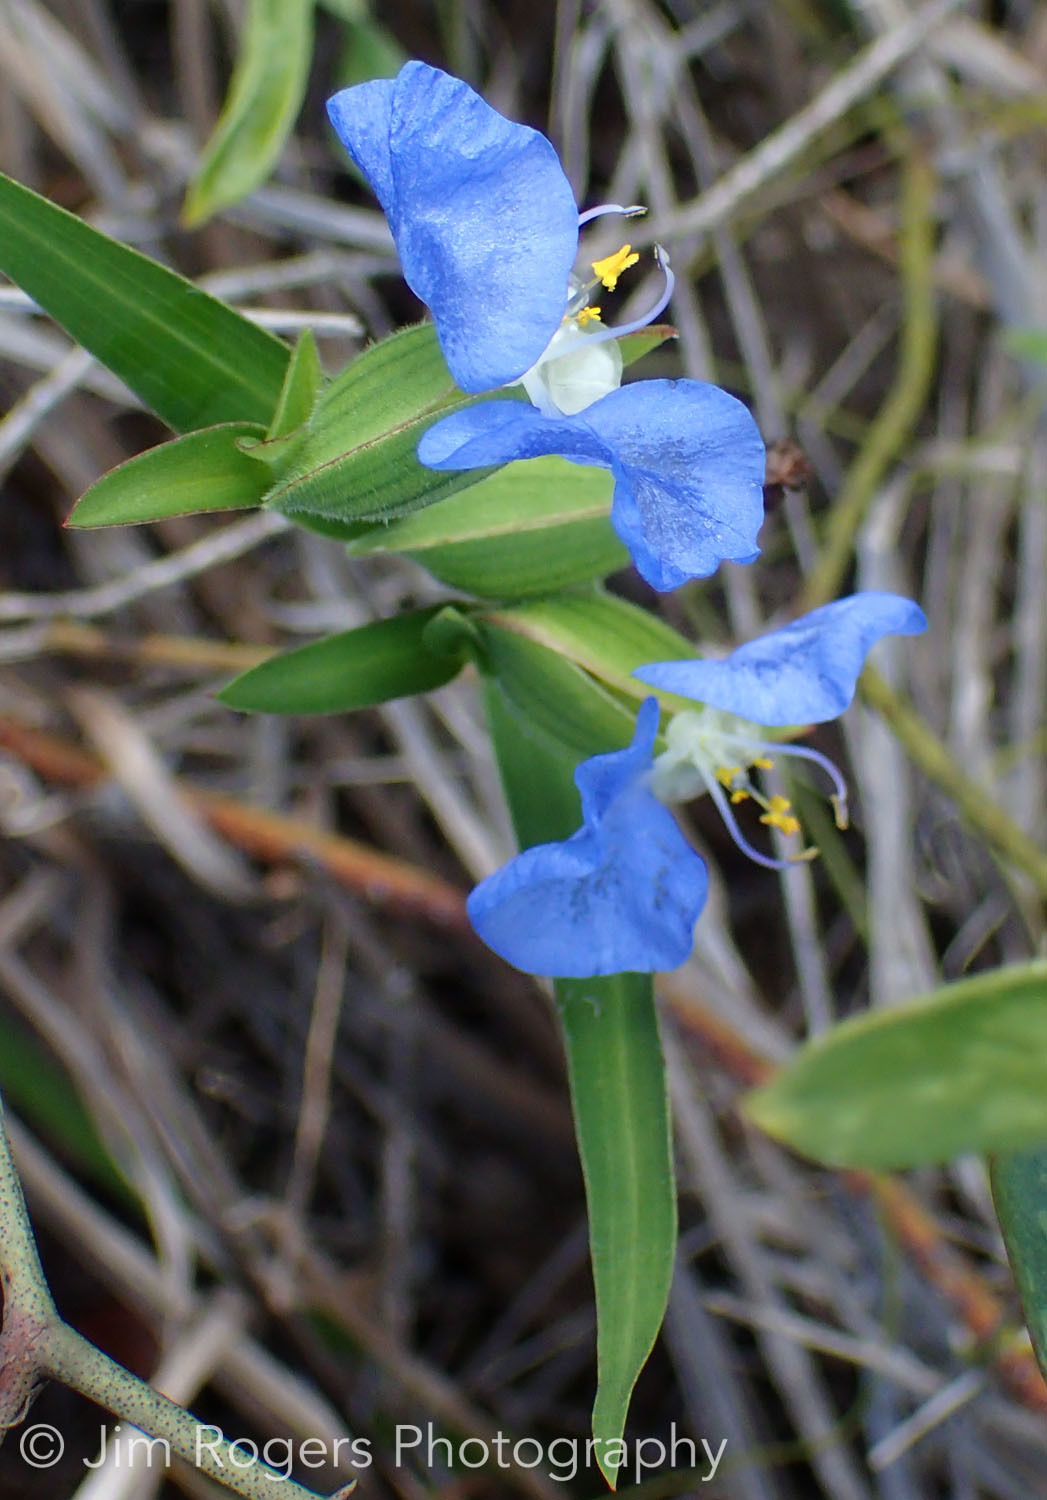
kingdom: Plantae
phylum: Tracheophyta
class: Liliopsida
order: Commelinales
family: Commelinaceae
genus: Commelina
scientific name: Commelina erecta
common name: Blousel blommetjie
